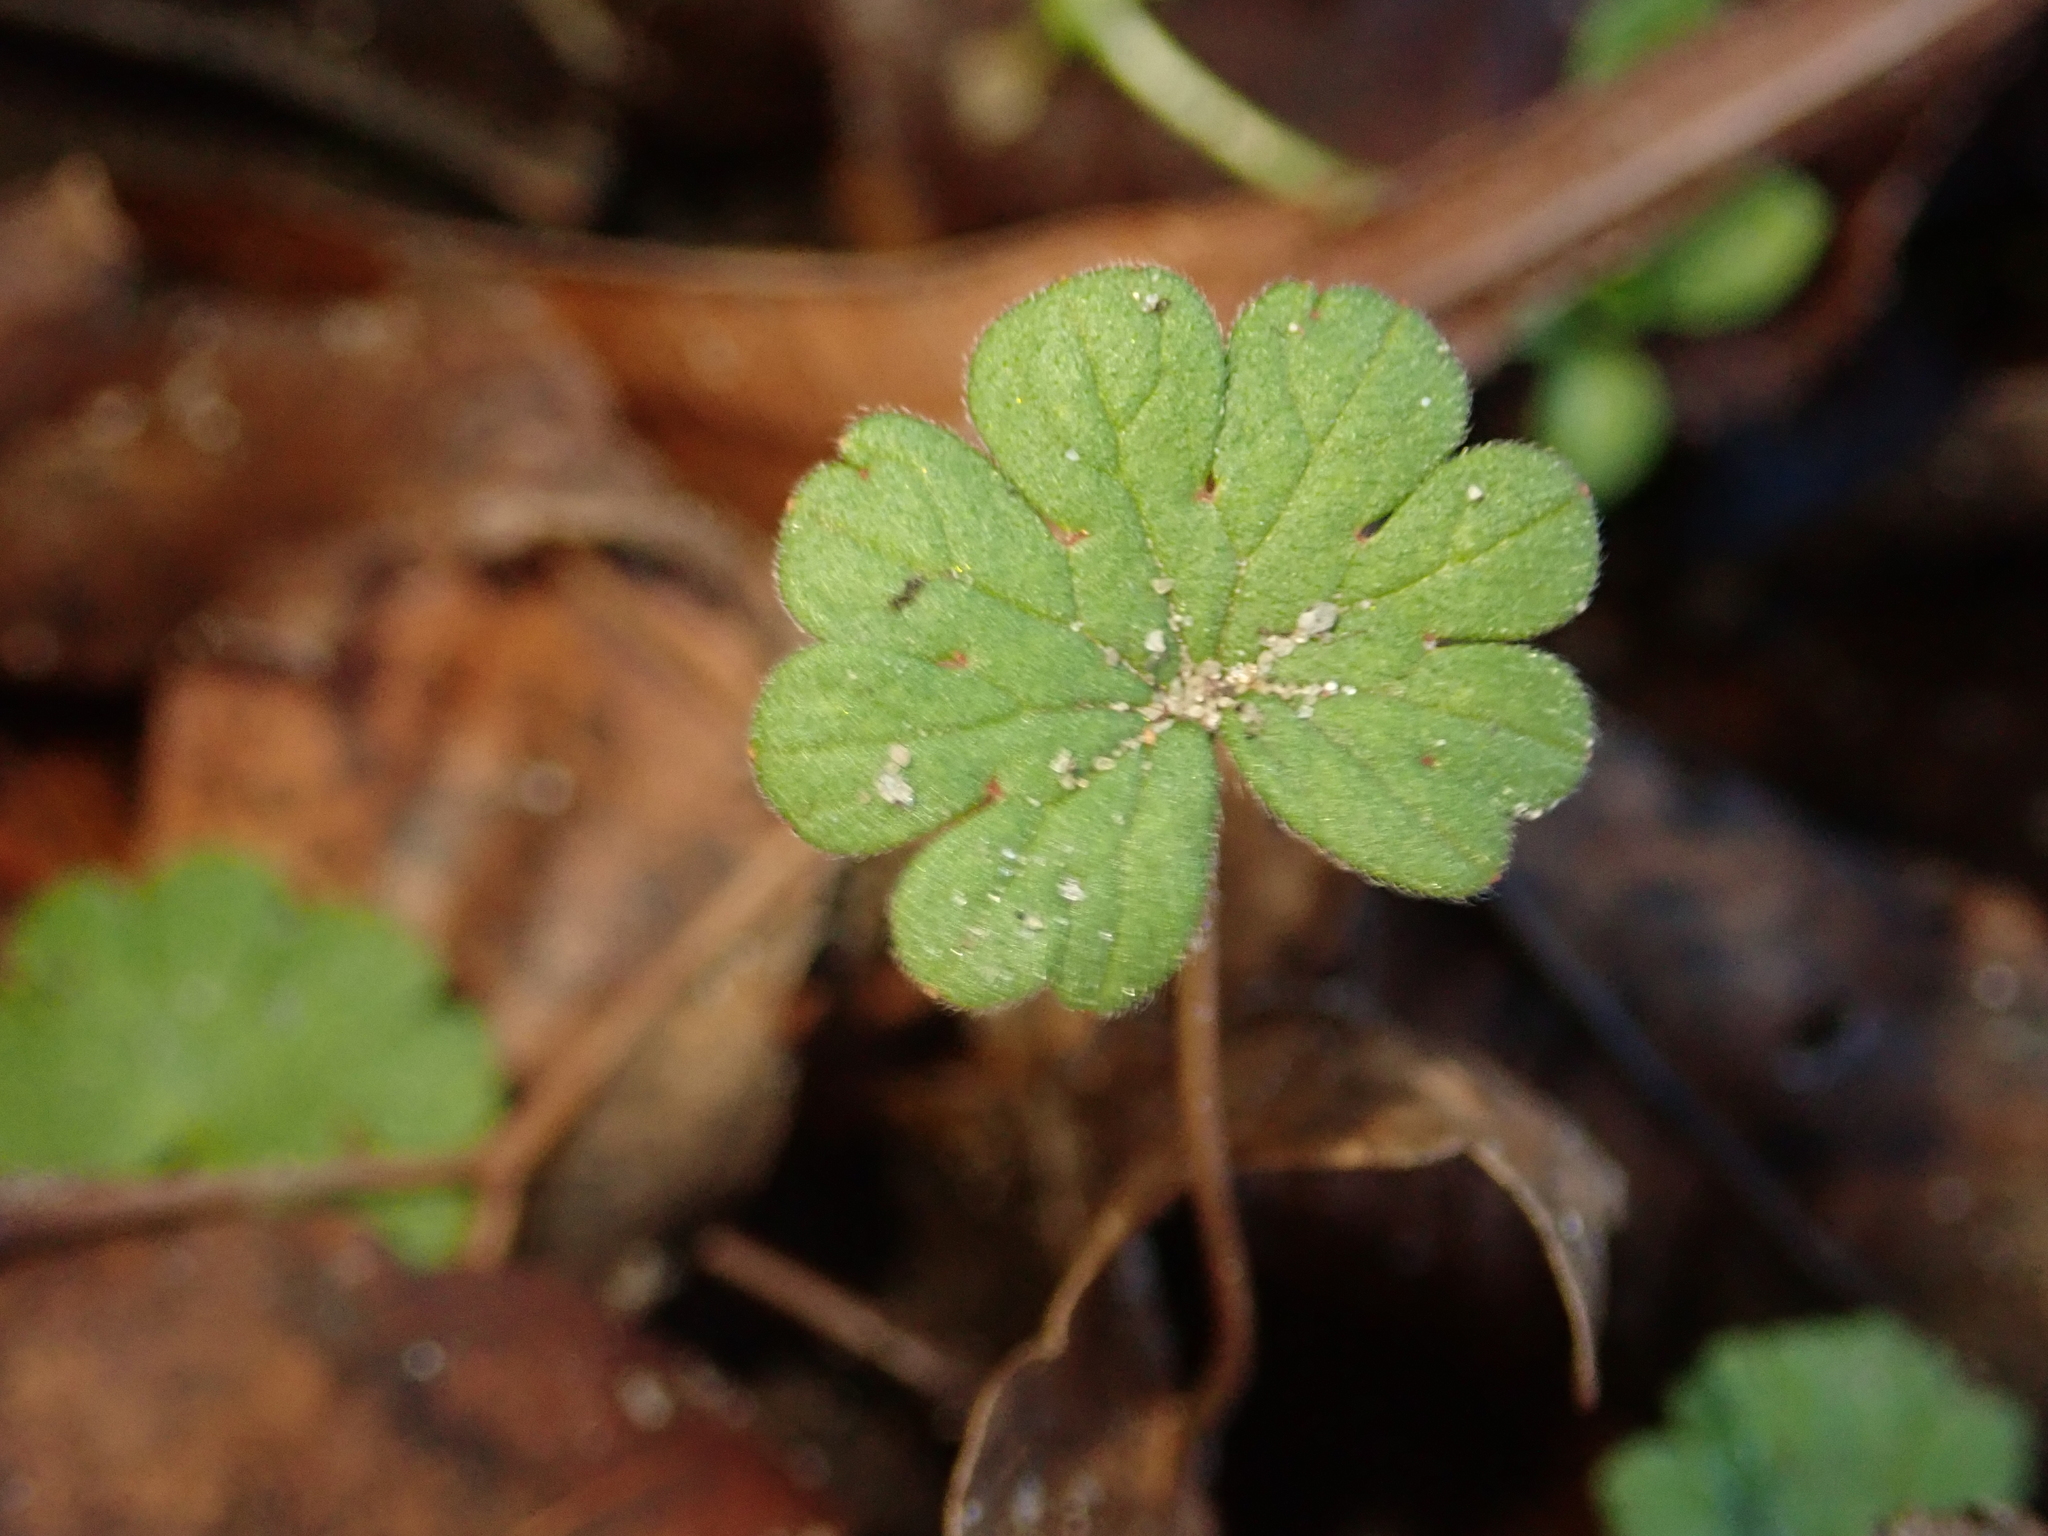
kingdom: Plantae
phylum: Tracheophyta
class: Magnoliopsida
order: Geraniales
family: Geraniaceae
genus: Geranium
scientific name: Geranium molle
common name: Dove's-foot crane's-bill
